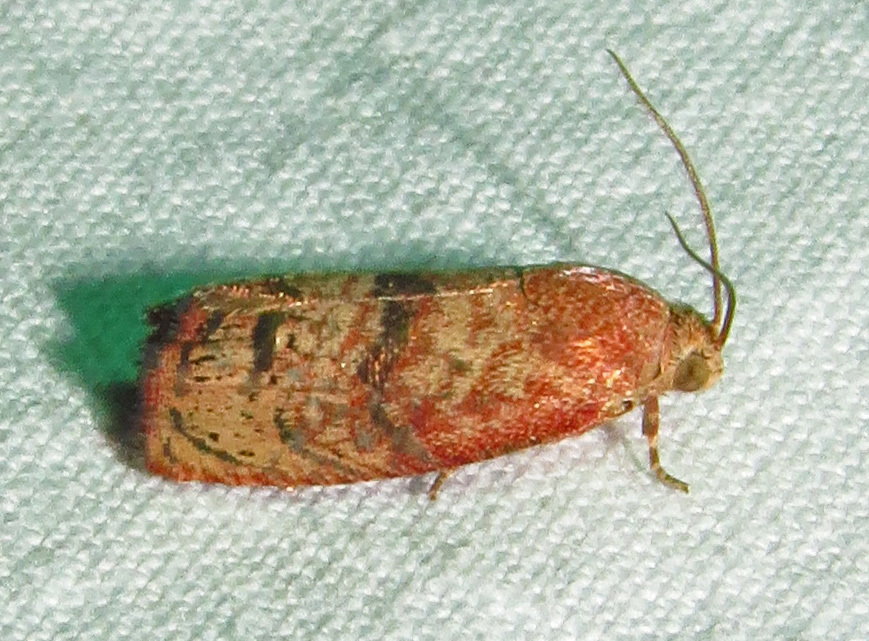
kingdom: Animalia
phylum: Arthropoda
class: Insecta
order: Lepidoptera
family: Tortricidae
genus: Cydia
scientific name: Cydia latiferreana
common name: Filbertworm moth
